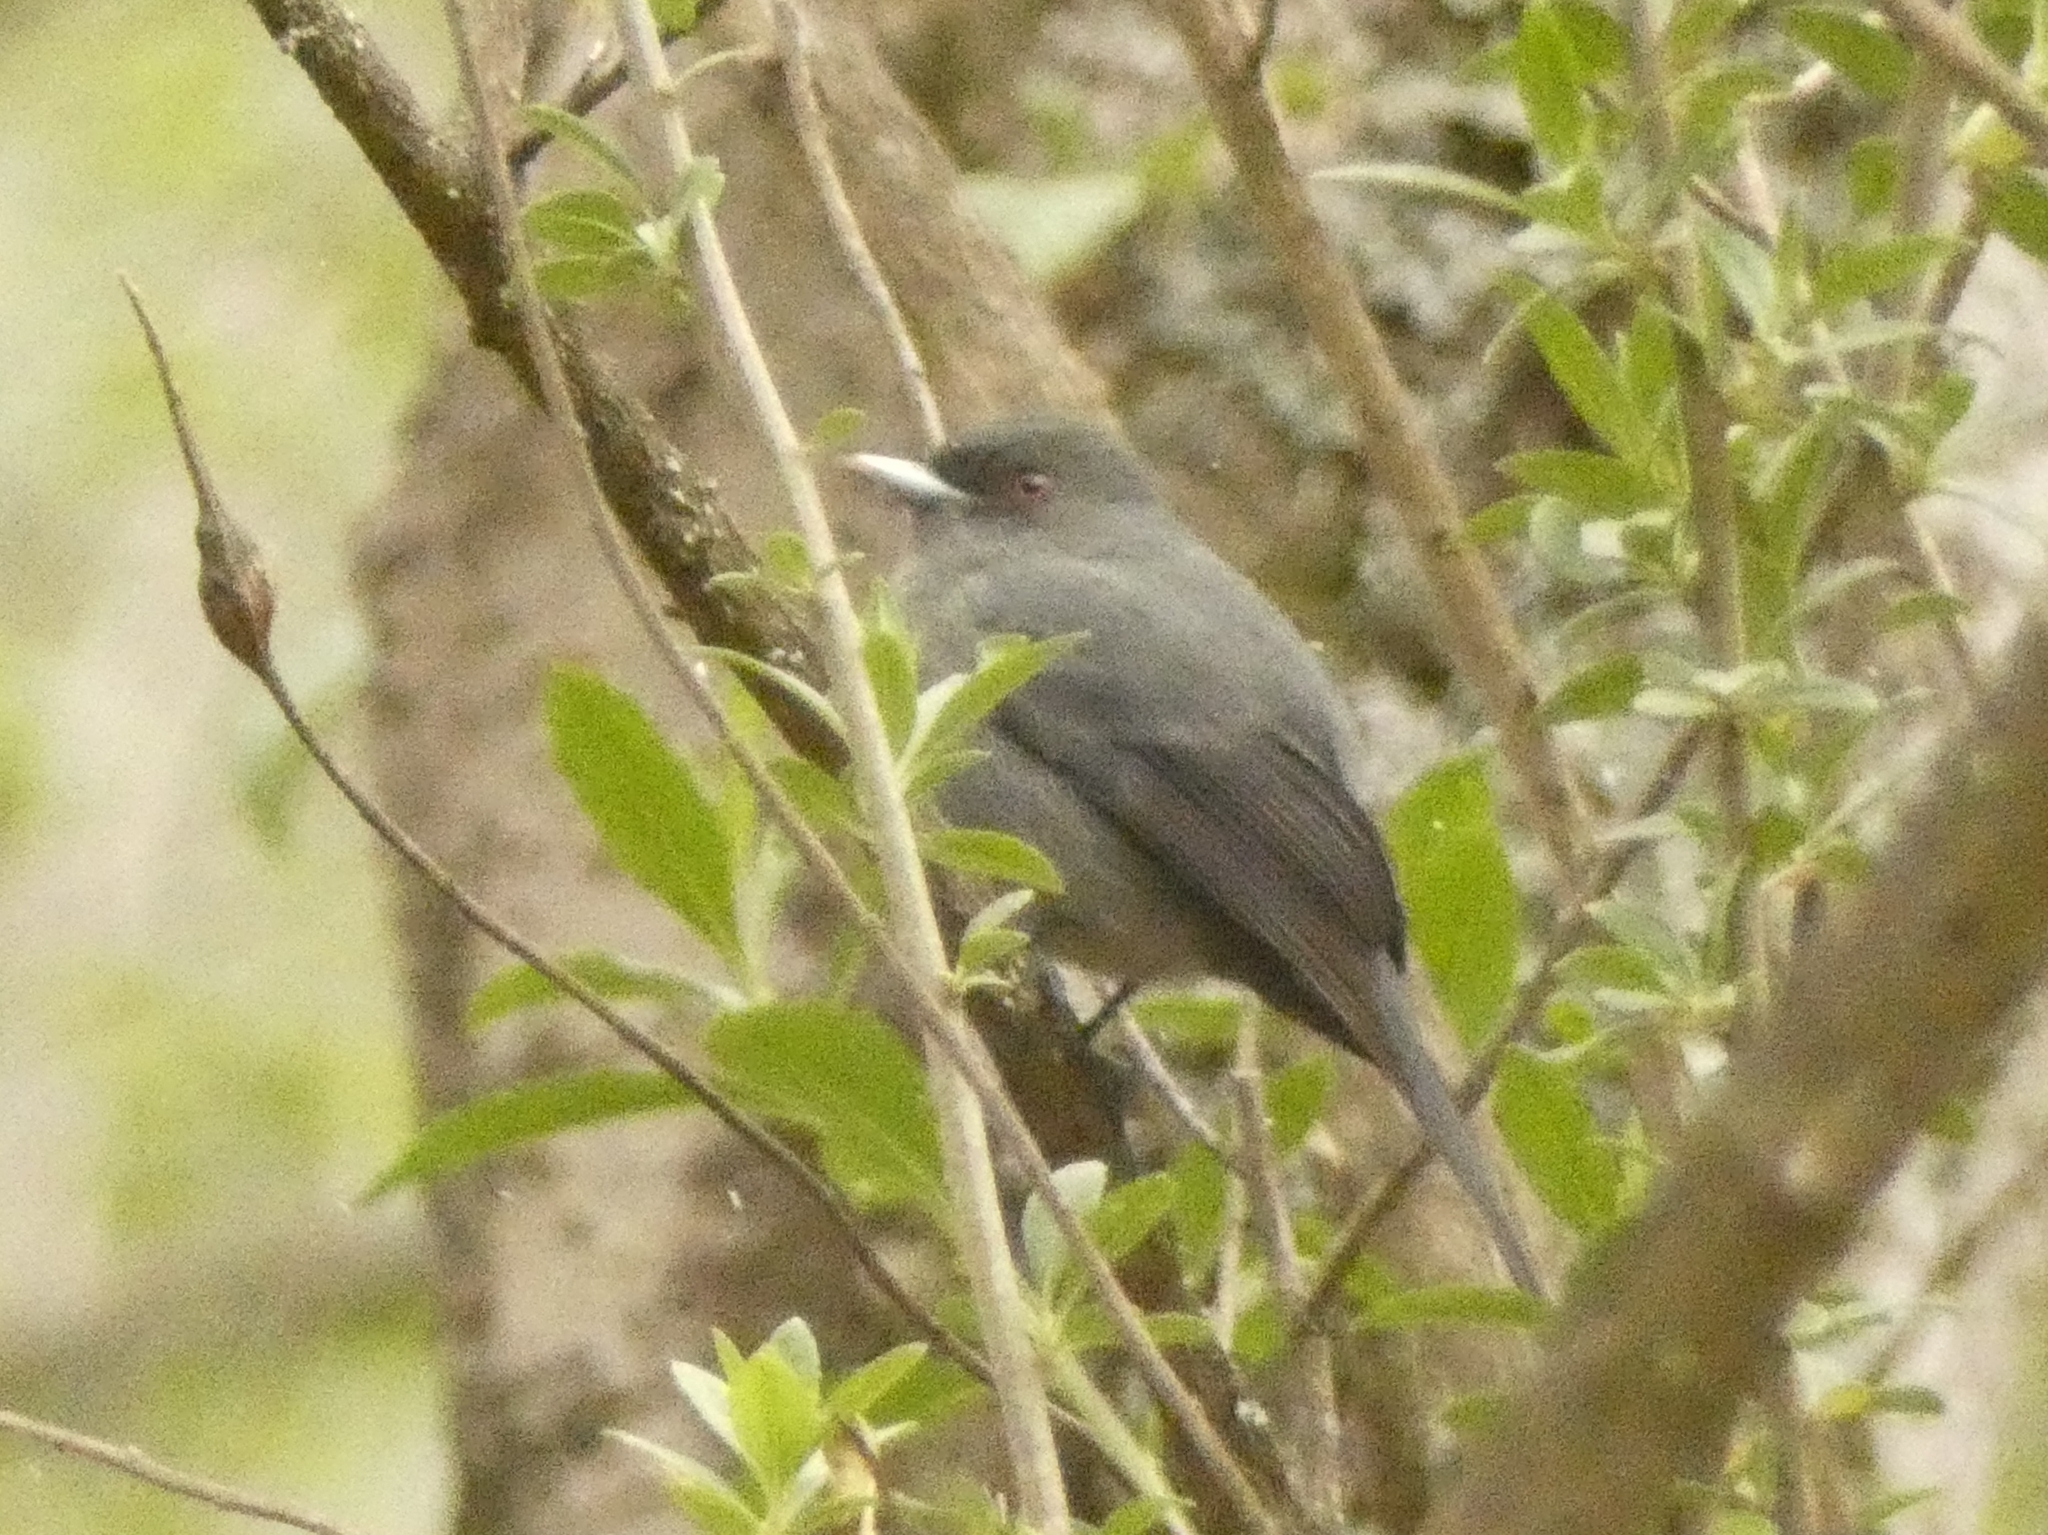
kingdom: Animalia
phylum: Chordata
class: Aves
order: Passeriformes
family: Tyrannidae
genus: Knipolegus
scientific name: Knipolegus cabanisi
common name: Plumbeous tyrant
